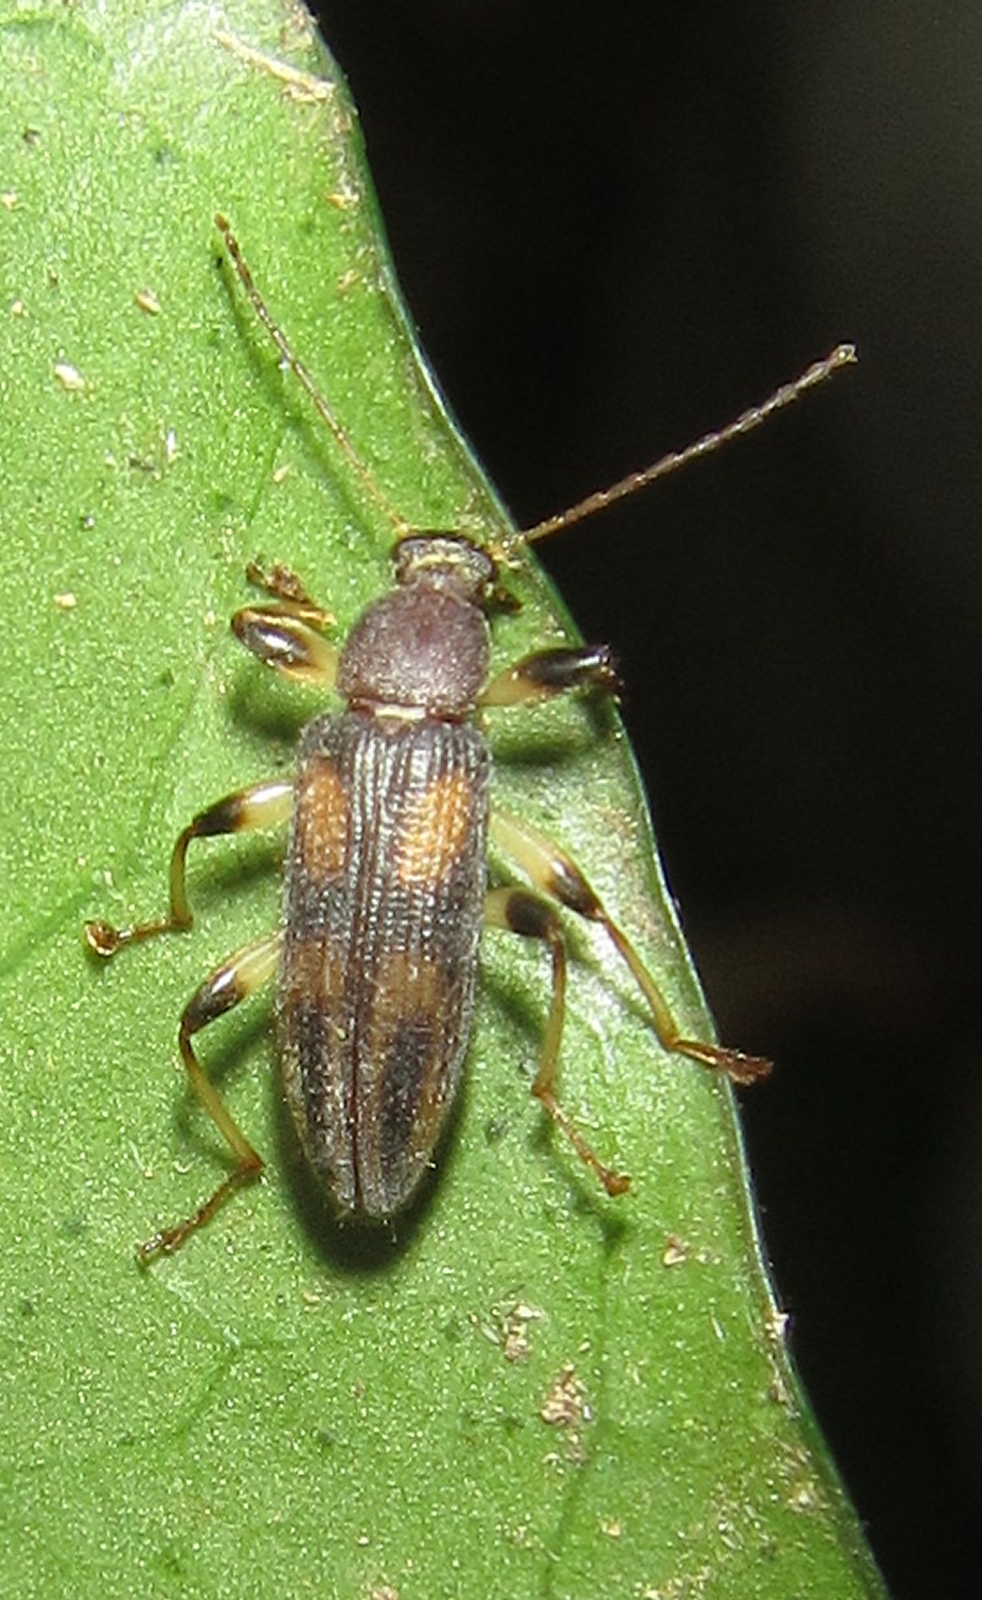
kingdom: Animalia
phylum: Arthropoda
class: Insecta
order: Coleoptera
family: Tenebrionidae
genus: Allecula
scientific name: Allecula
